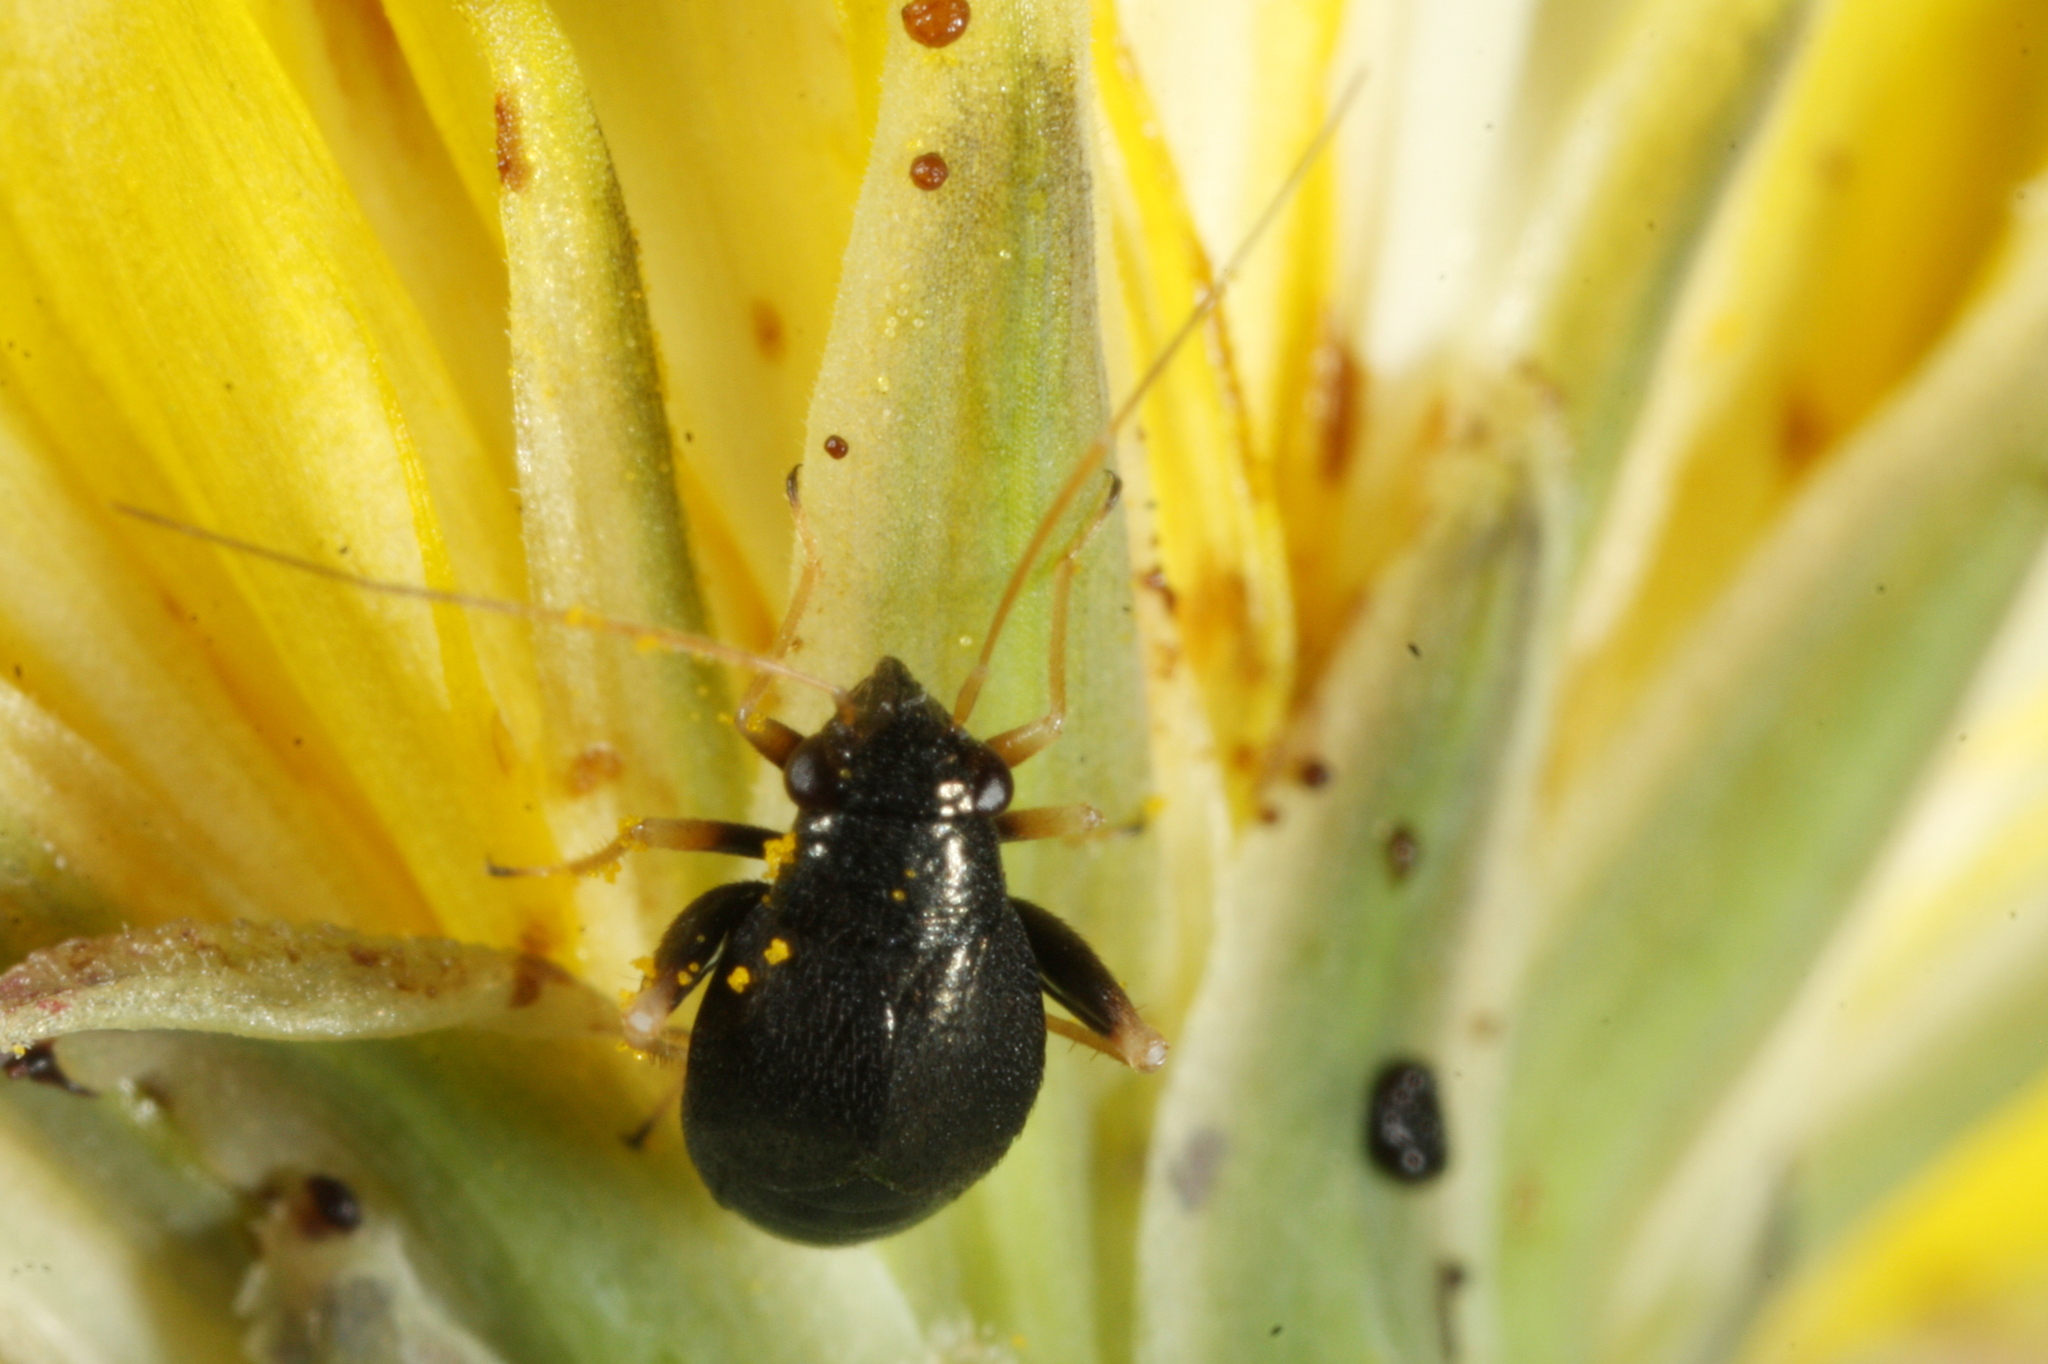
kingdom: Animalia
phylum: Arthropoda
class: Insecta
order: Hemiptera
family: Miridae
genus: Halticus
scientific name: Halticus apterus
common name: Fleahopper
